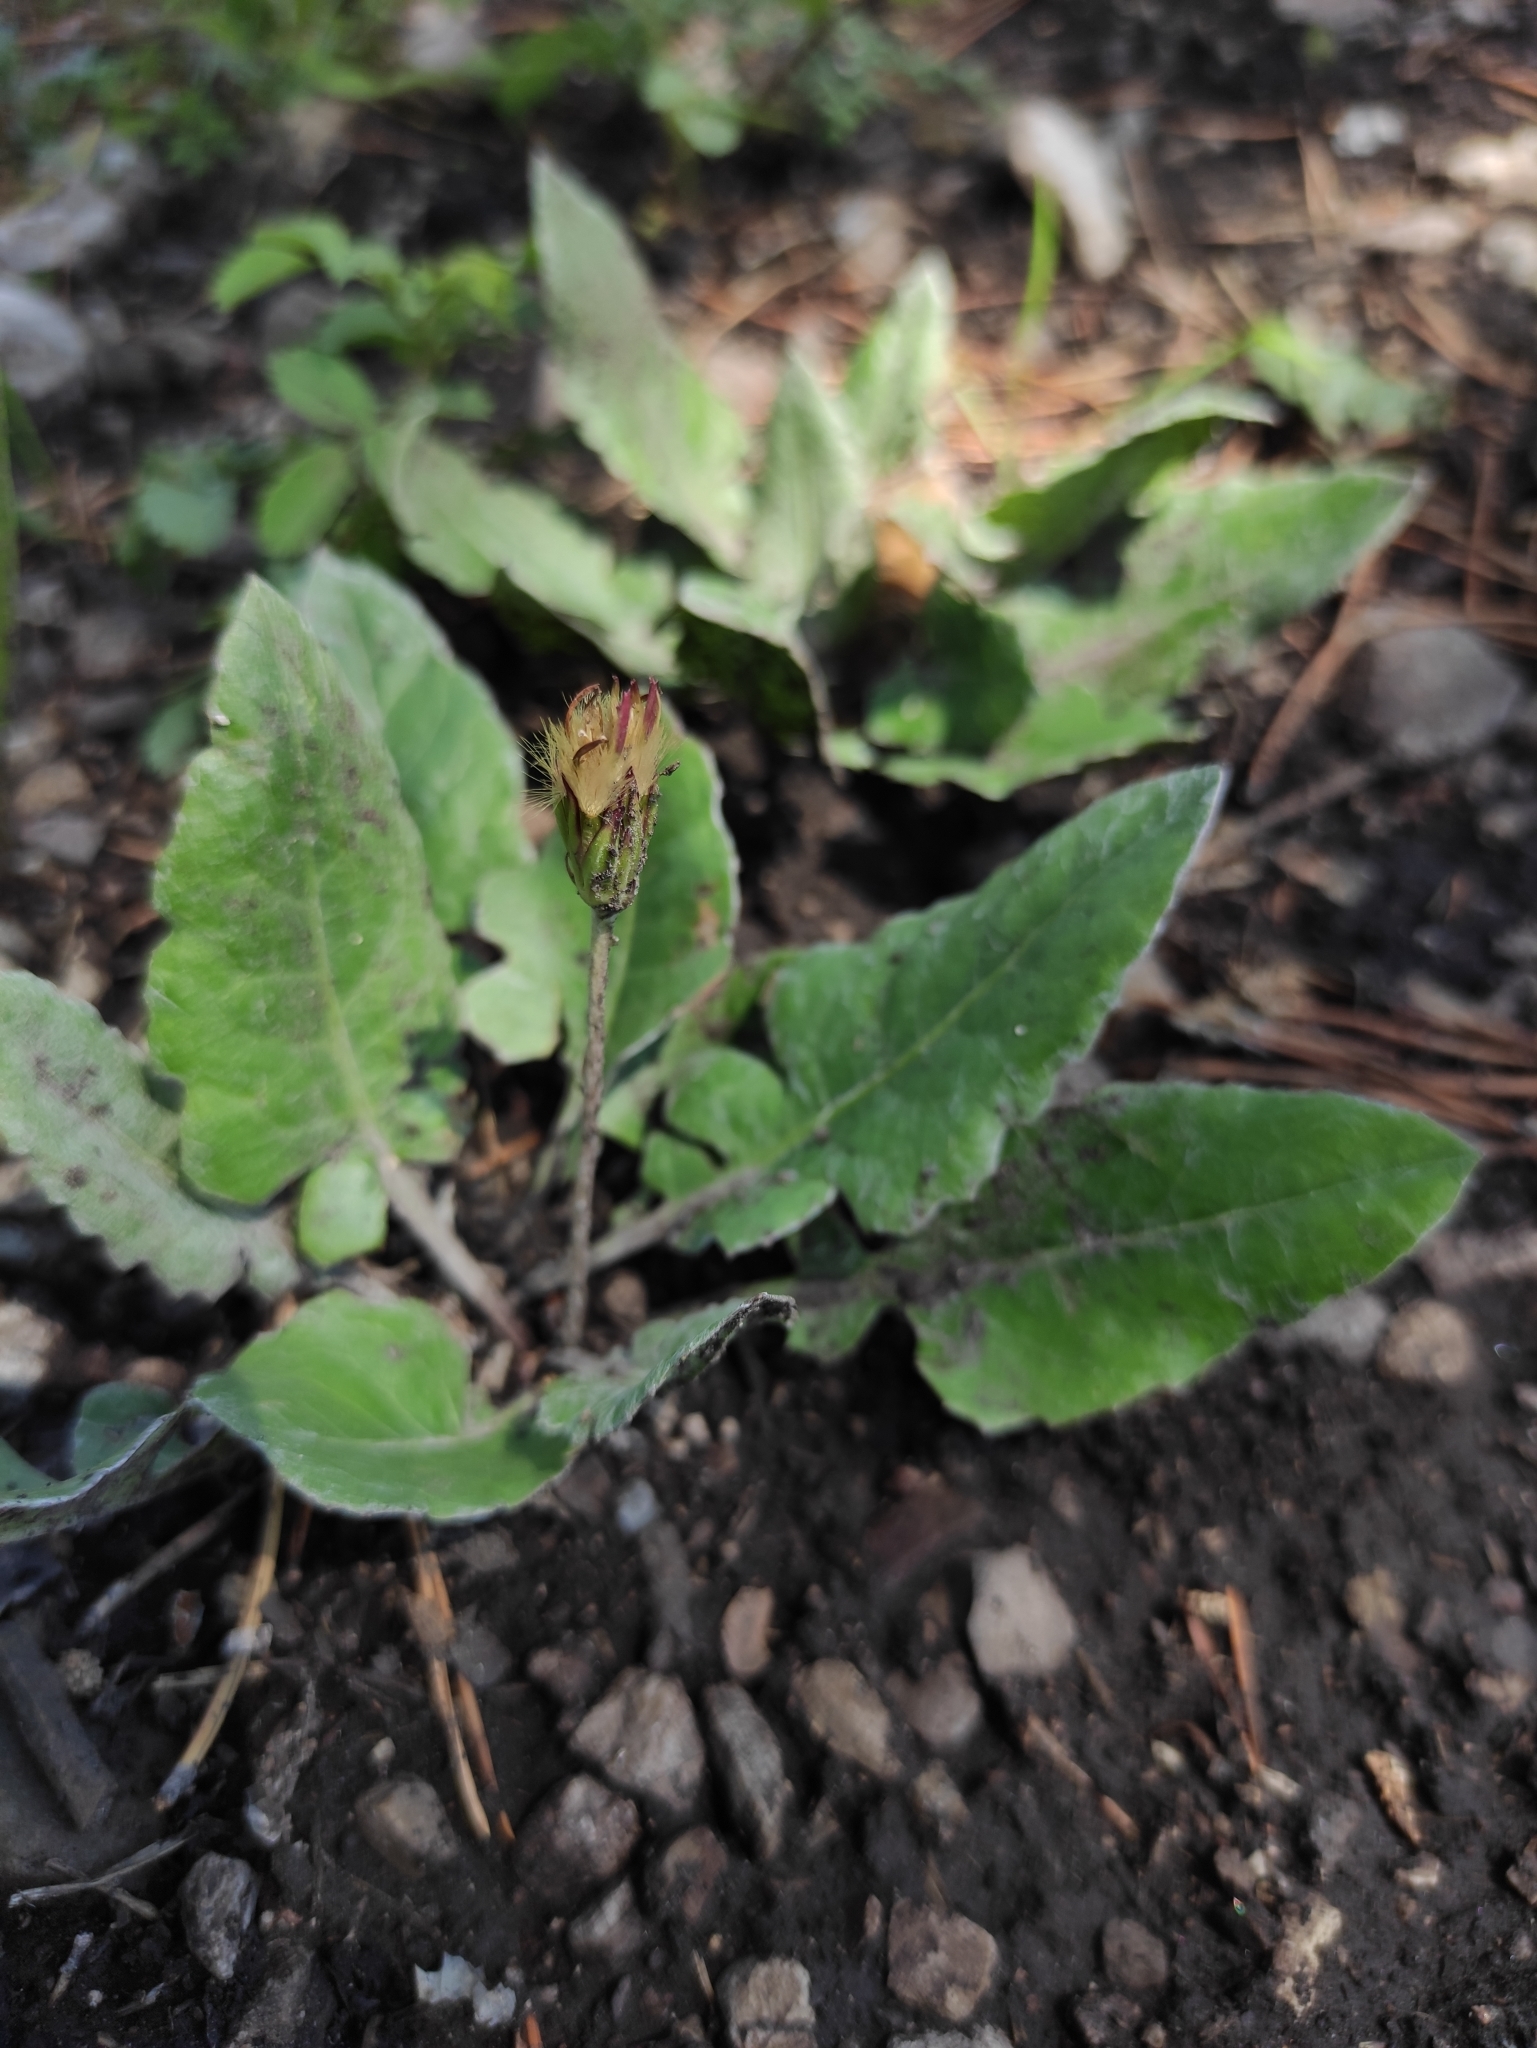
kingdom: Plantae
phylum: Tracheophyta
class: Magnoliopsida
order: Asterales
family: Asteraceae
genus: Leibnitzia
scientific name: Leibnitzia anandria
